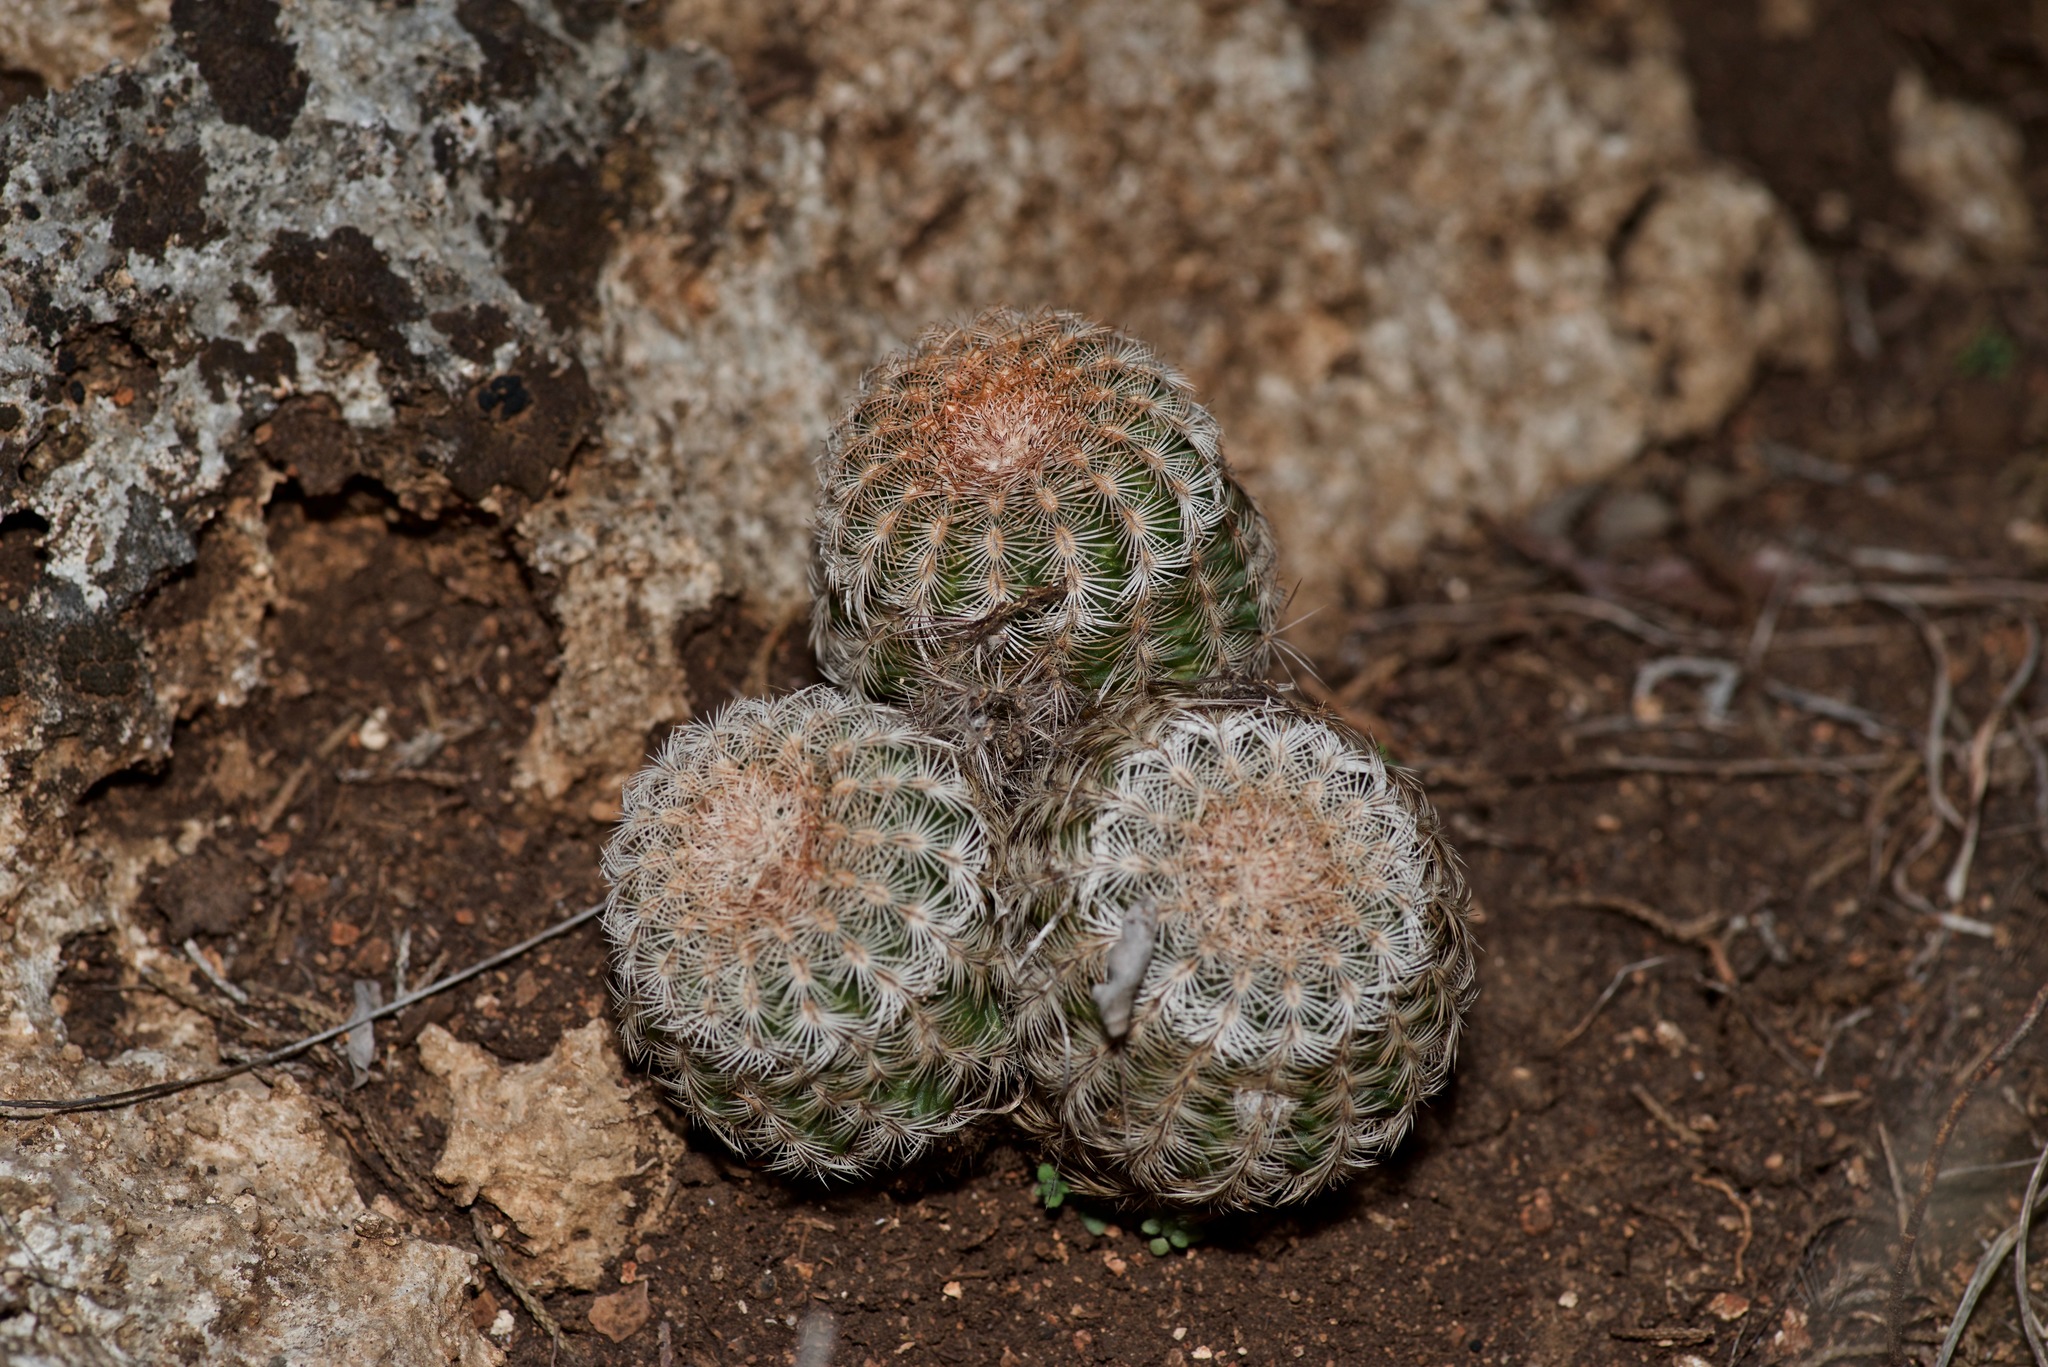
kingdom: Plantae
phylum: Tracheophyta
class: Magnoliopsida
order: Caryophyllales
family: Cactaceae
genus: Echinocereus
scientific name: Echinocereus reichenbachii
